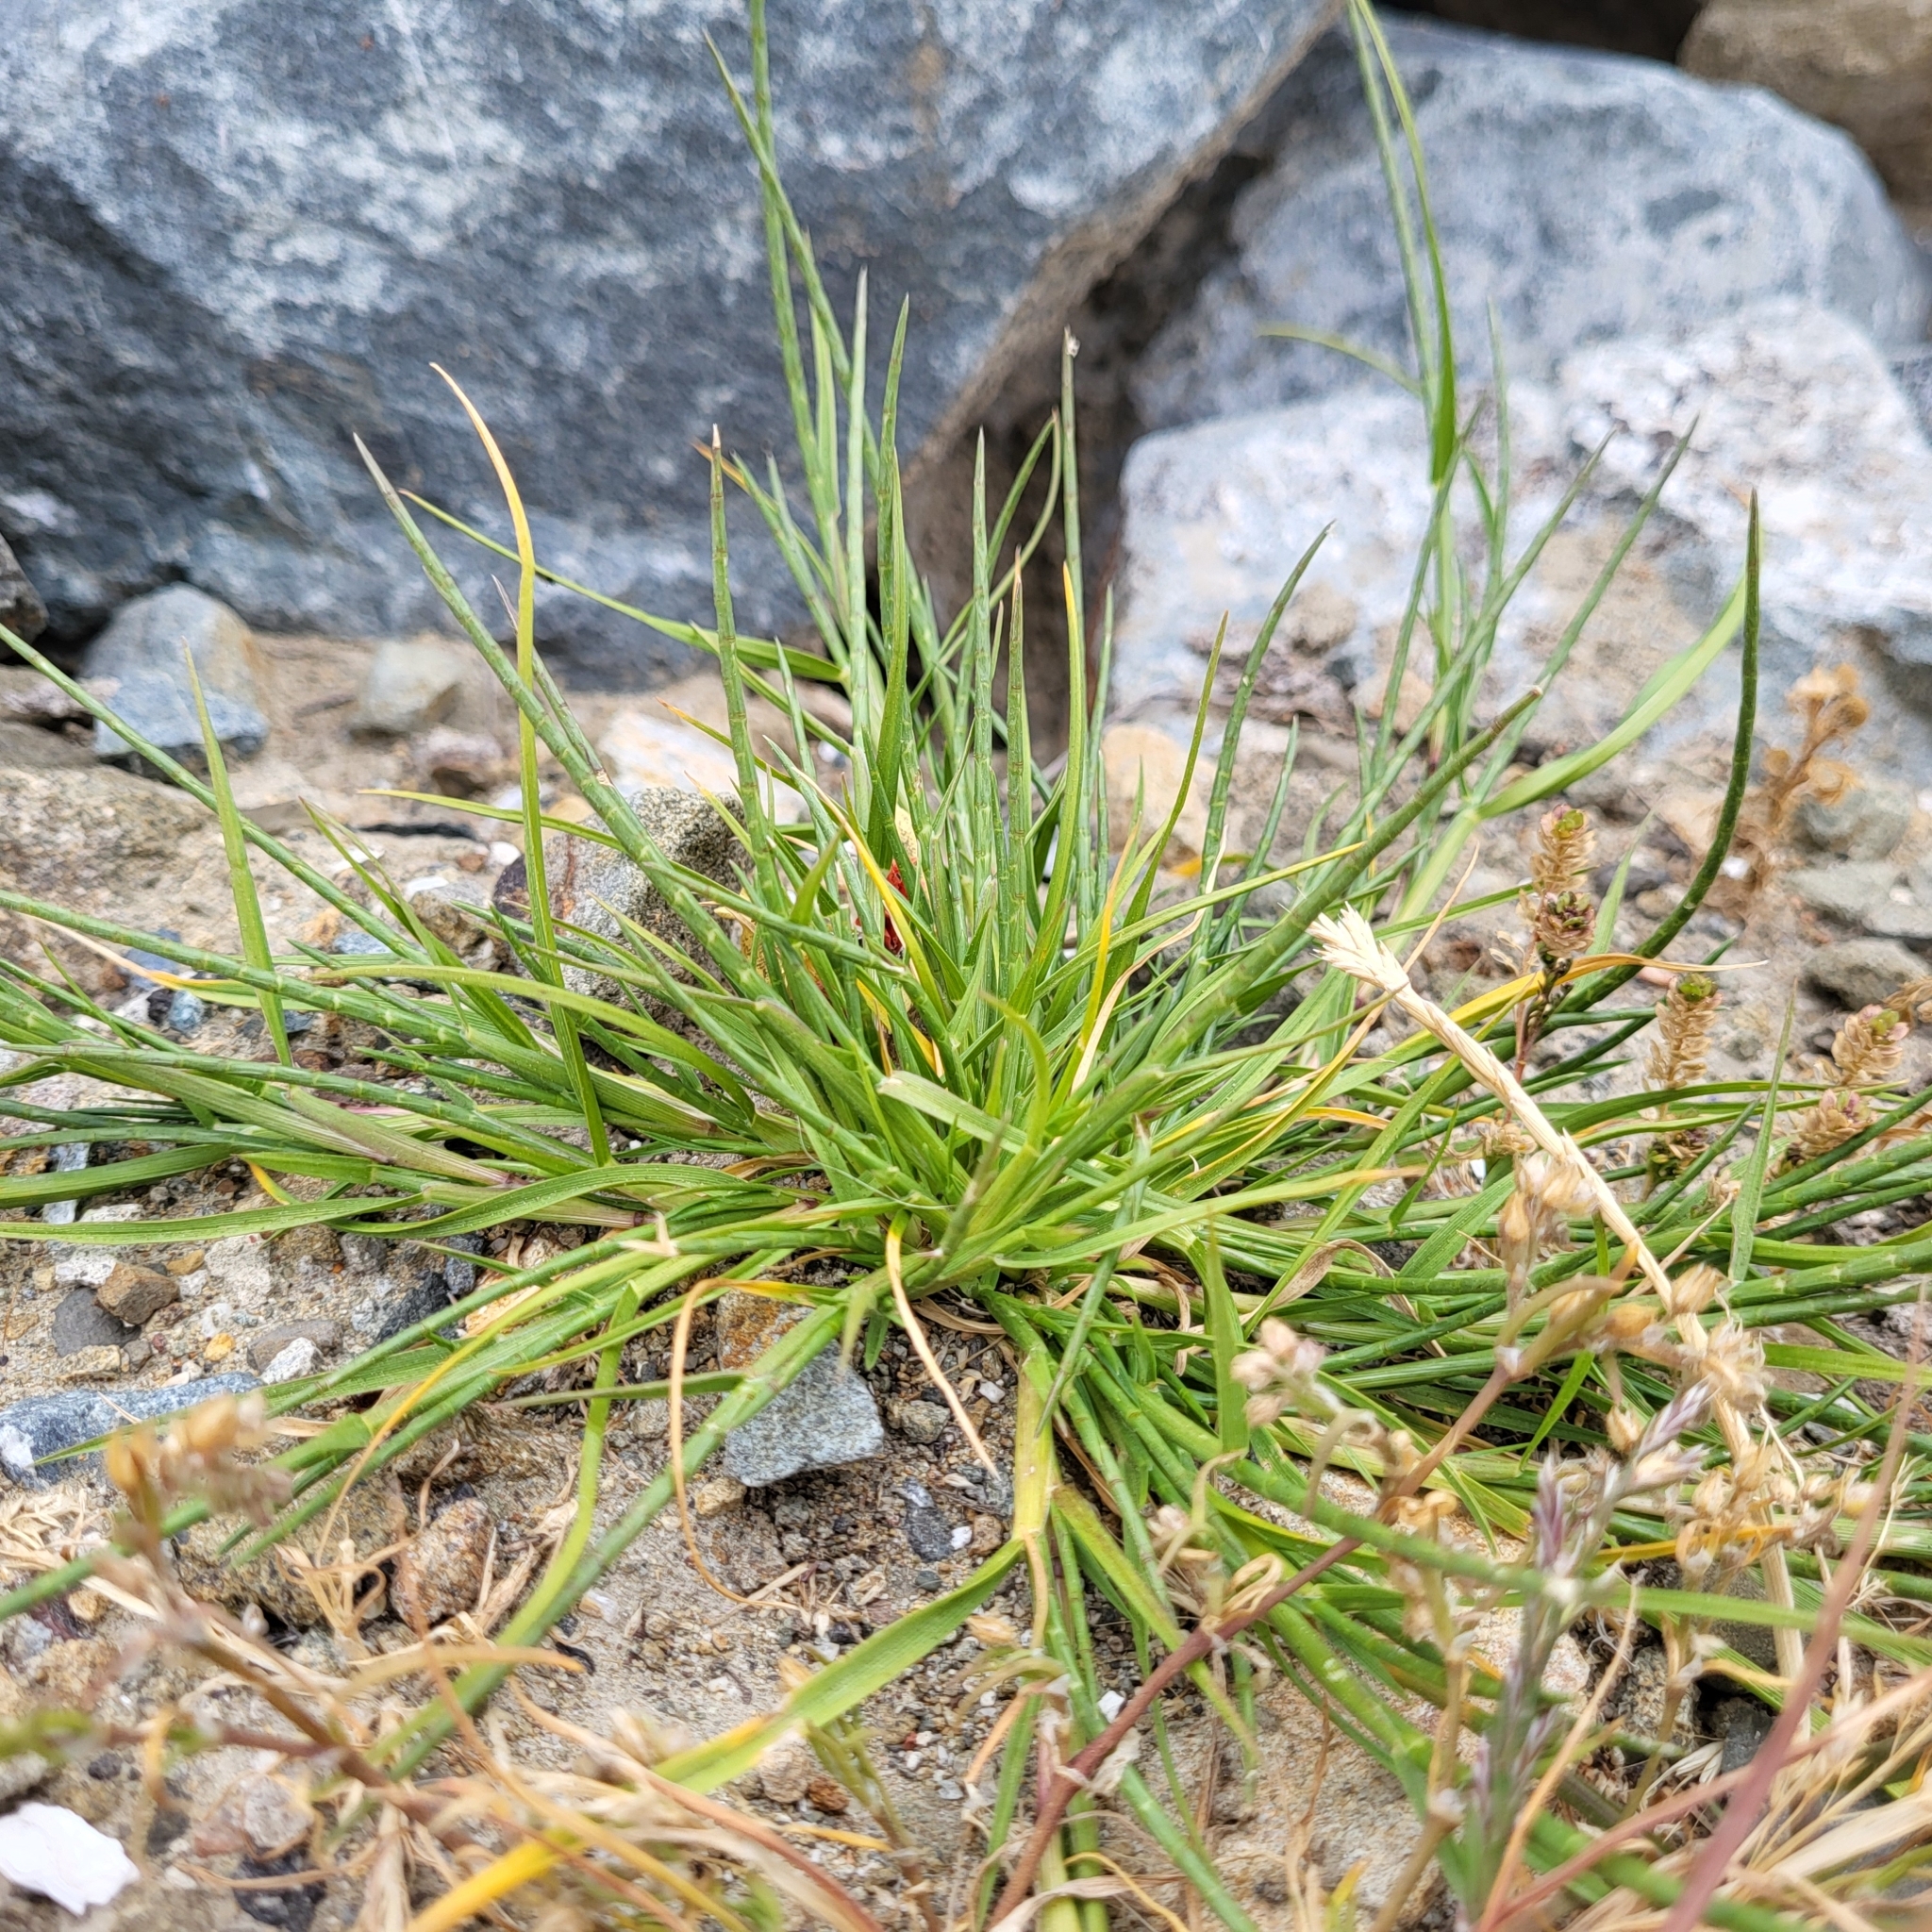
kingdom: Plantae
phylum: Tracheophyta
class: Liliopsida
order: Poales
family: Poaceae
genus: Parapholis
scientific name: Parapholis cylindrica
